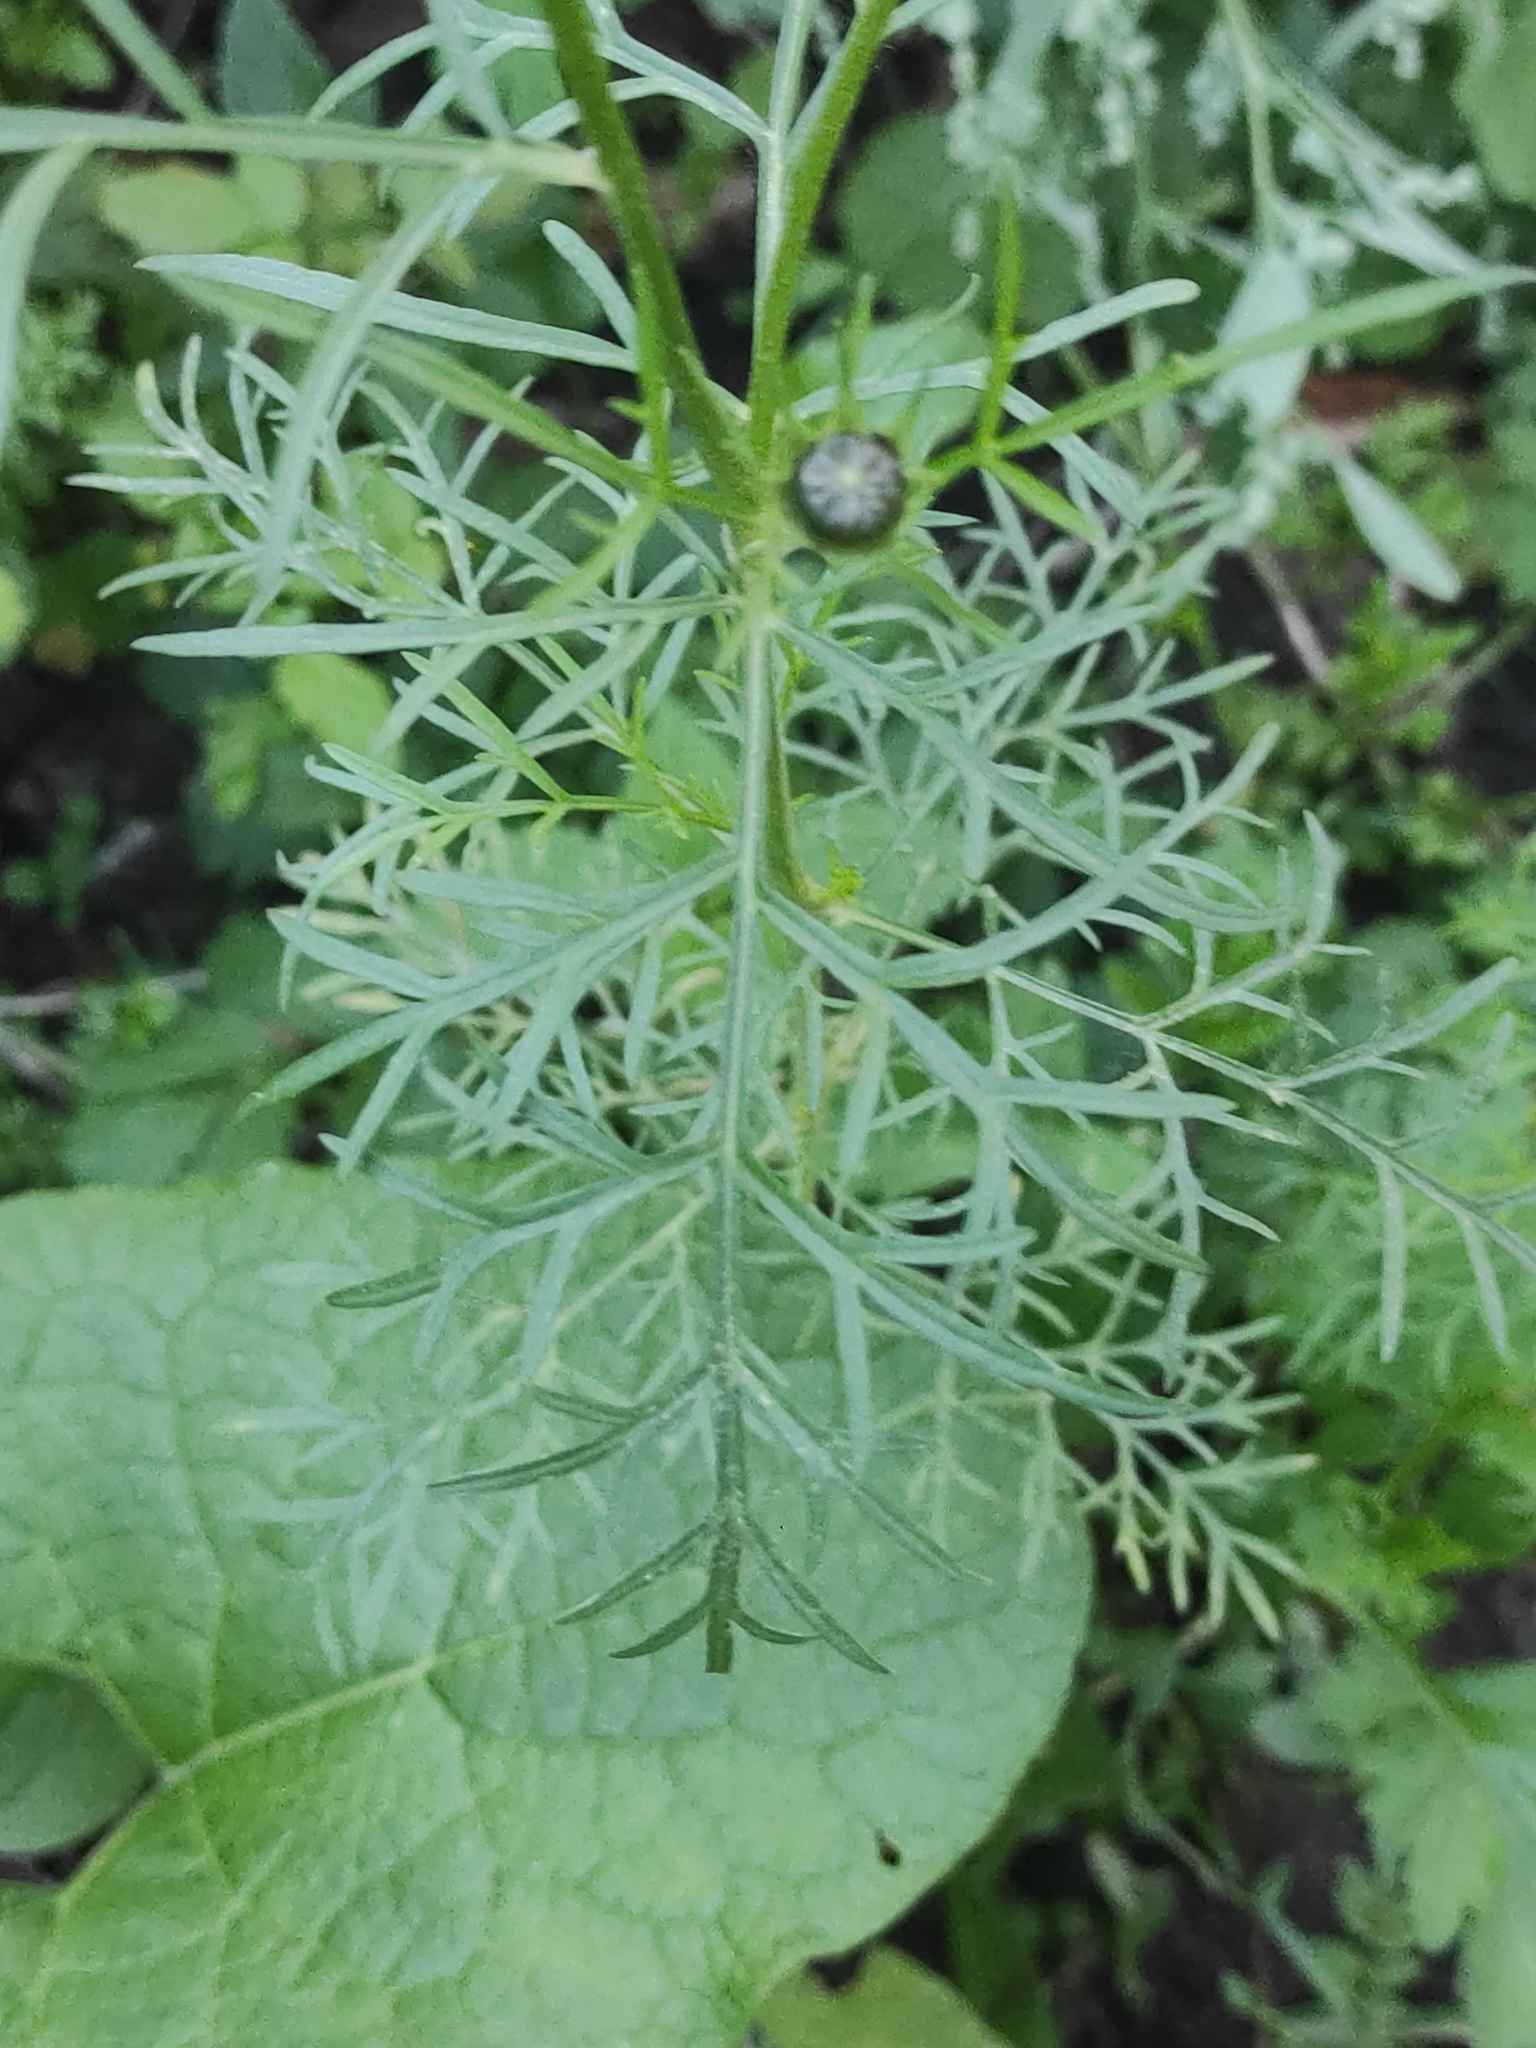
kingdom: Plantae
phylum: Tracheophyta
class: Magnoliopsida
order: Asterales
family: Asteraceae
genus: Cosmos
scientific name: Cosmos bipinnatus
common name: Garden cosmos
